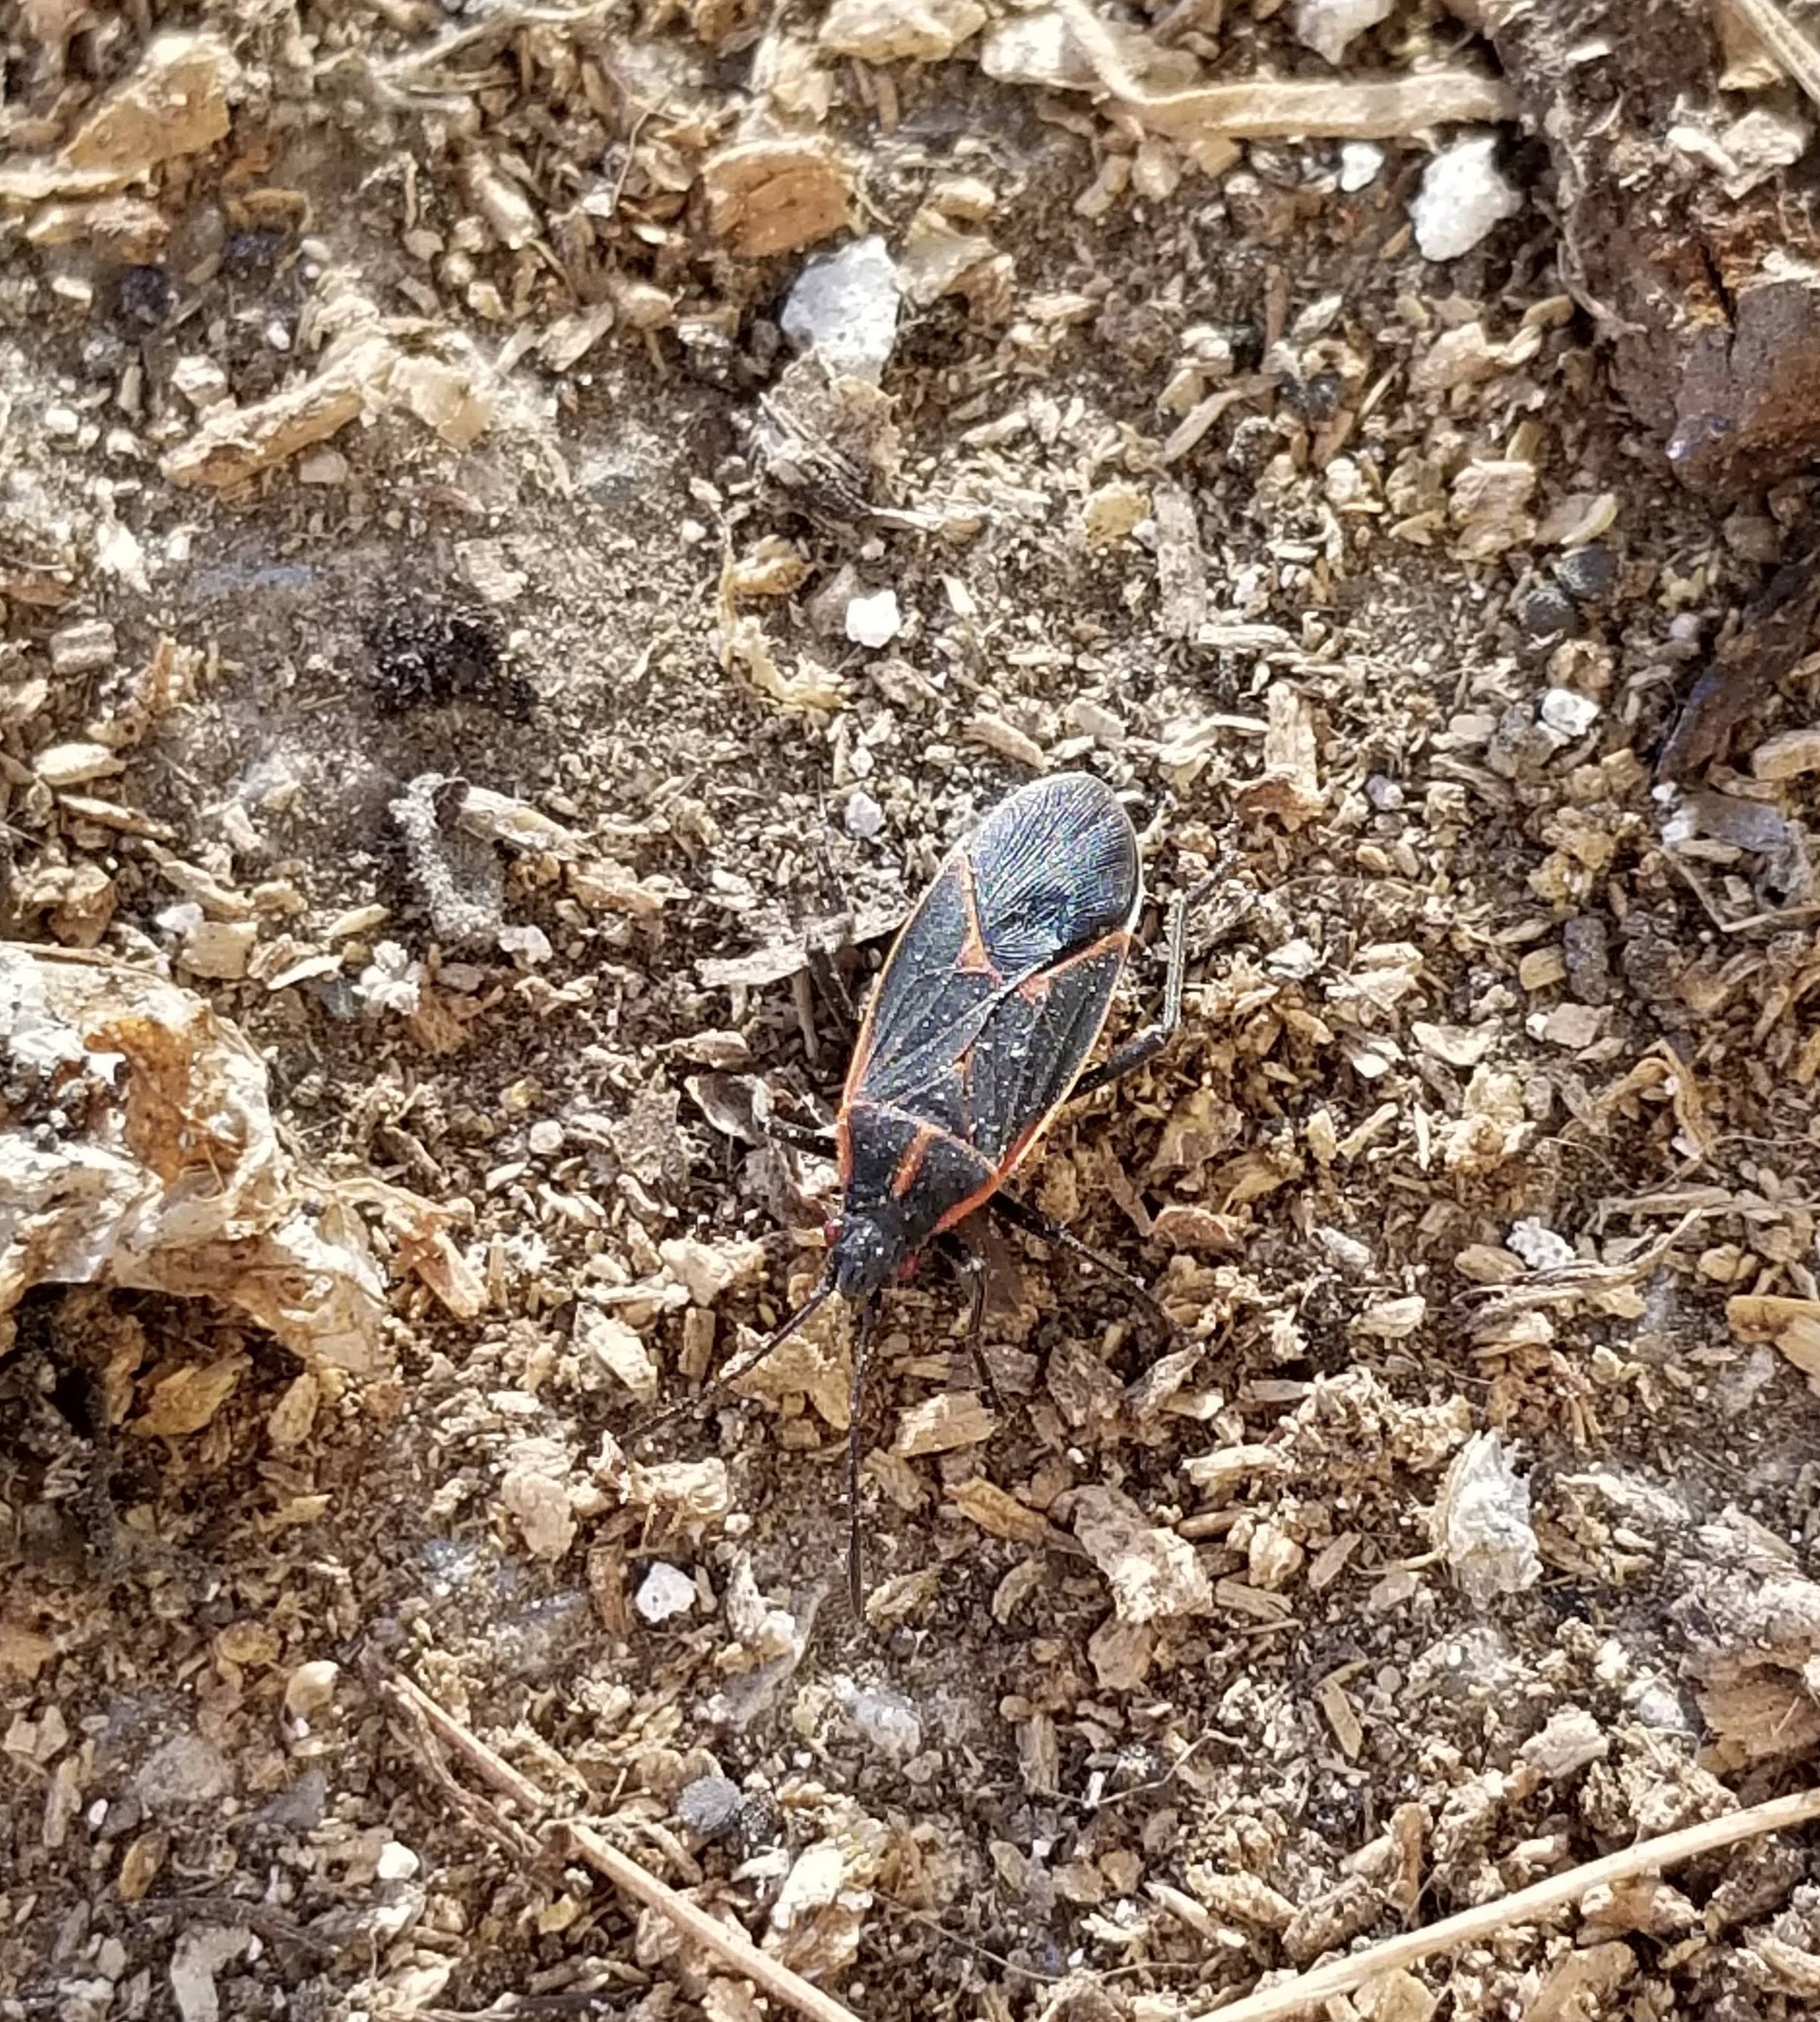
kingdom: Animalia
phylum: Arthropoda
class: Insecta
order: Hemiptera
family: Rhopalidae
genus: Boisea
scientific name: Boisea trivittata
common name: Boxelder bug
